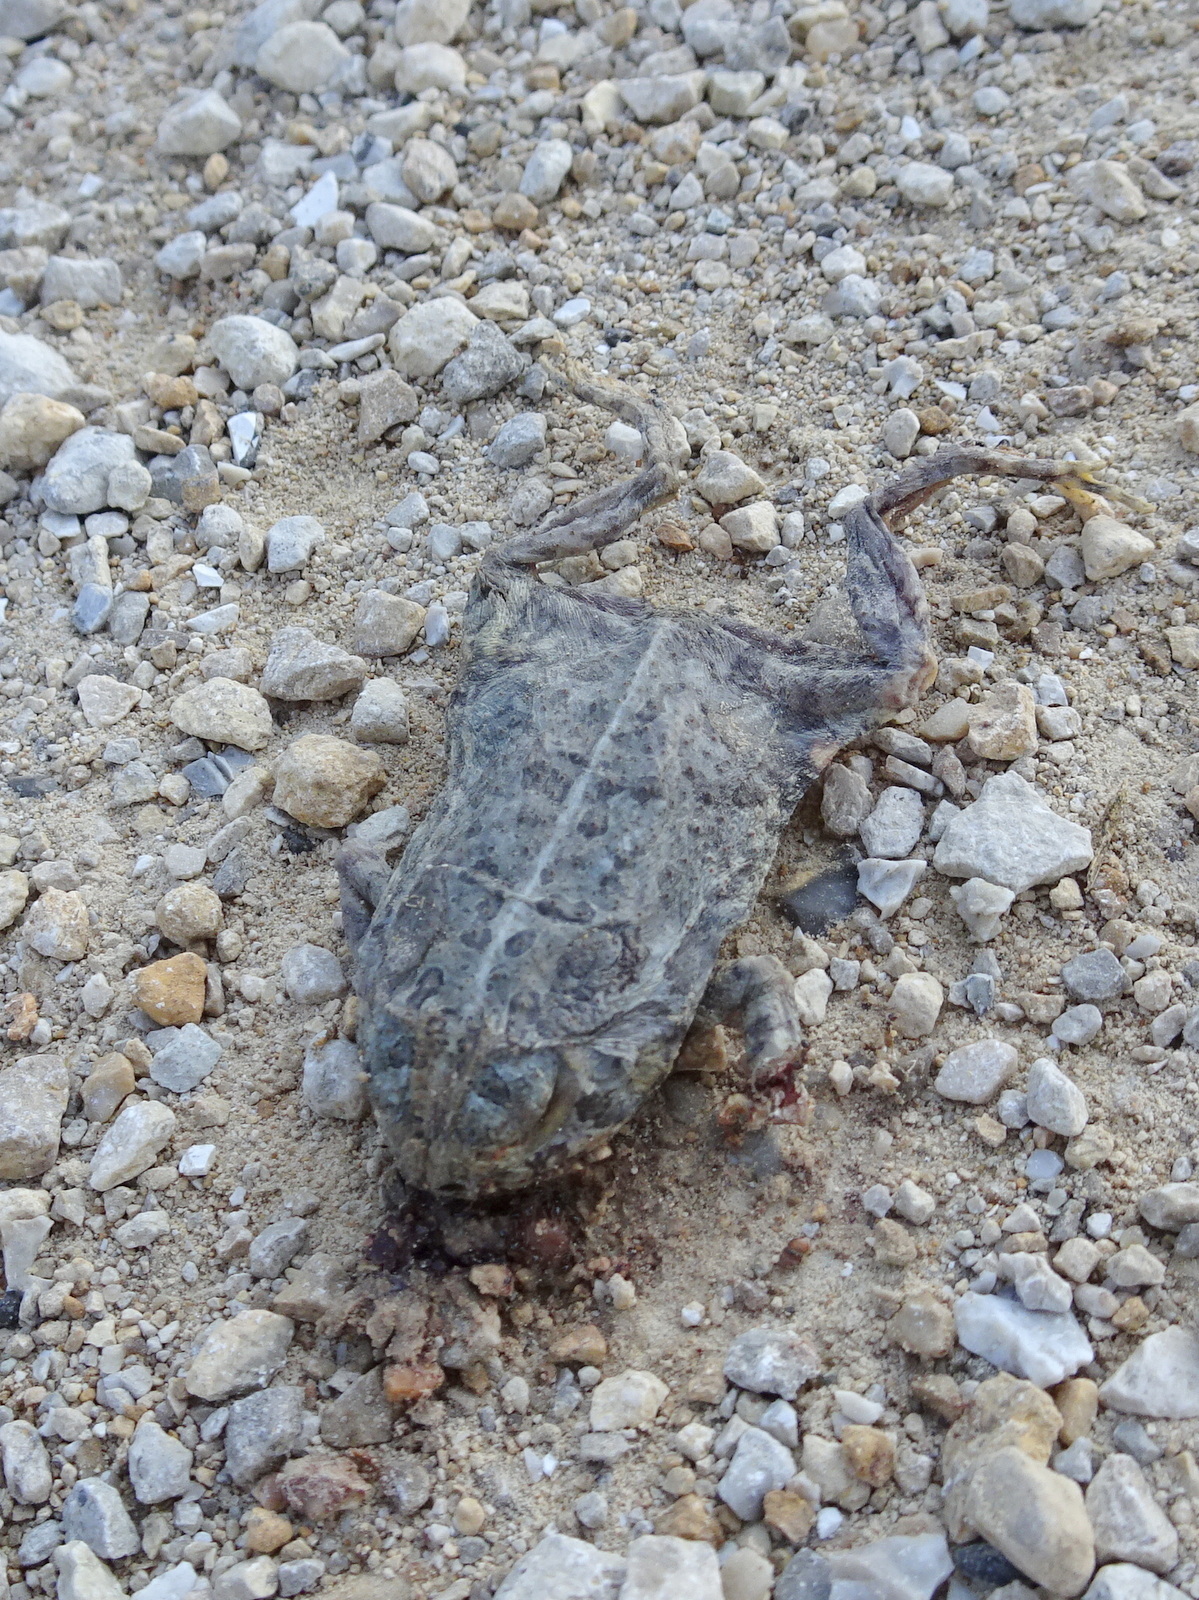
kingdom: Animalia
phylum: Chordata
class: Amphibia
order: Anura
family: Bufonidae
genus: Anaxyrus
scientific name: Anaxyrus woodhousii
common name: Woodhouse's toad
